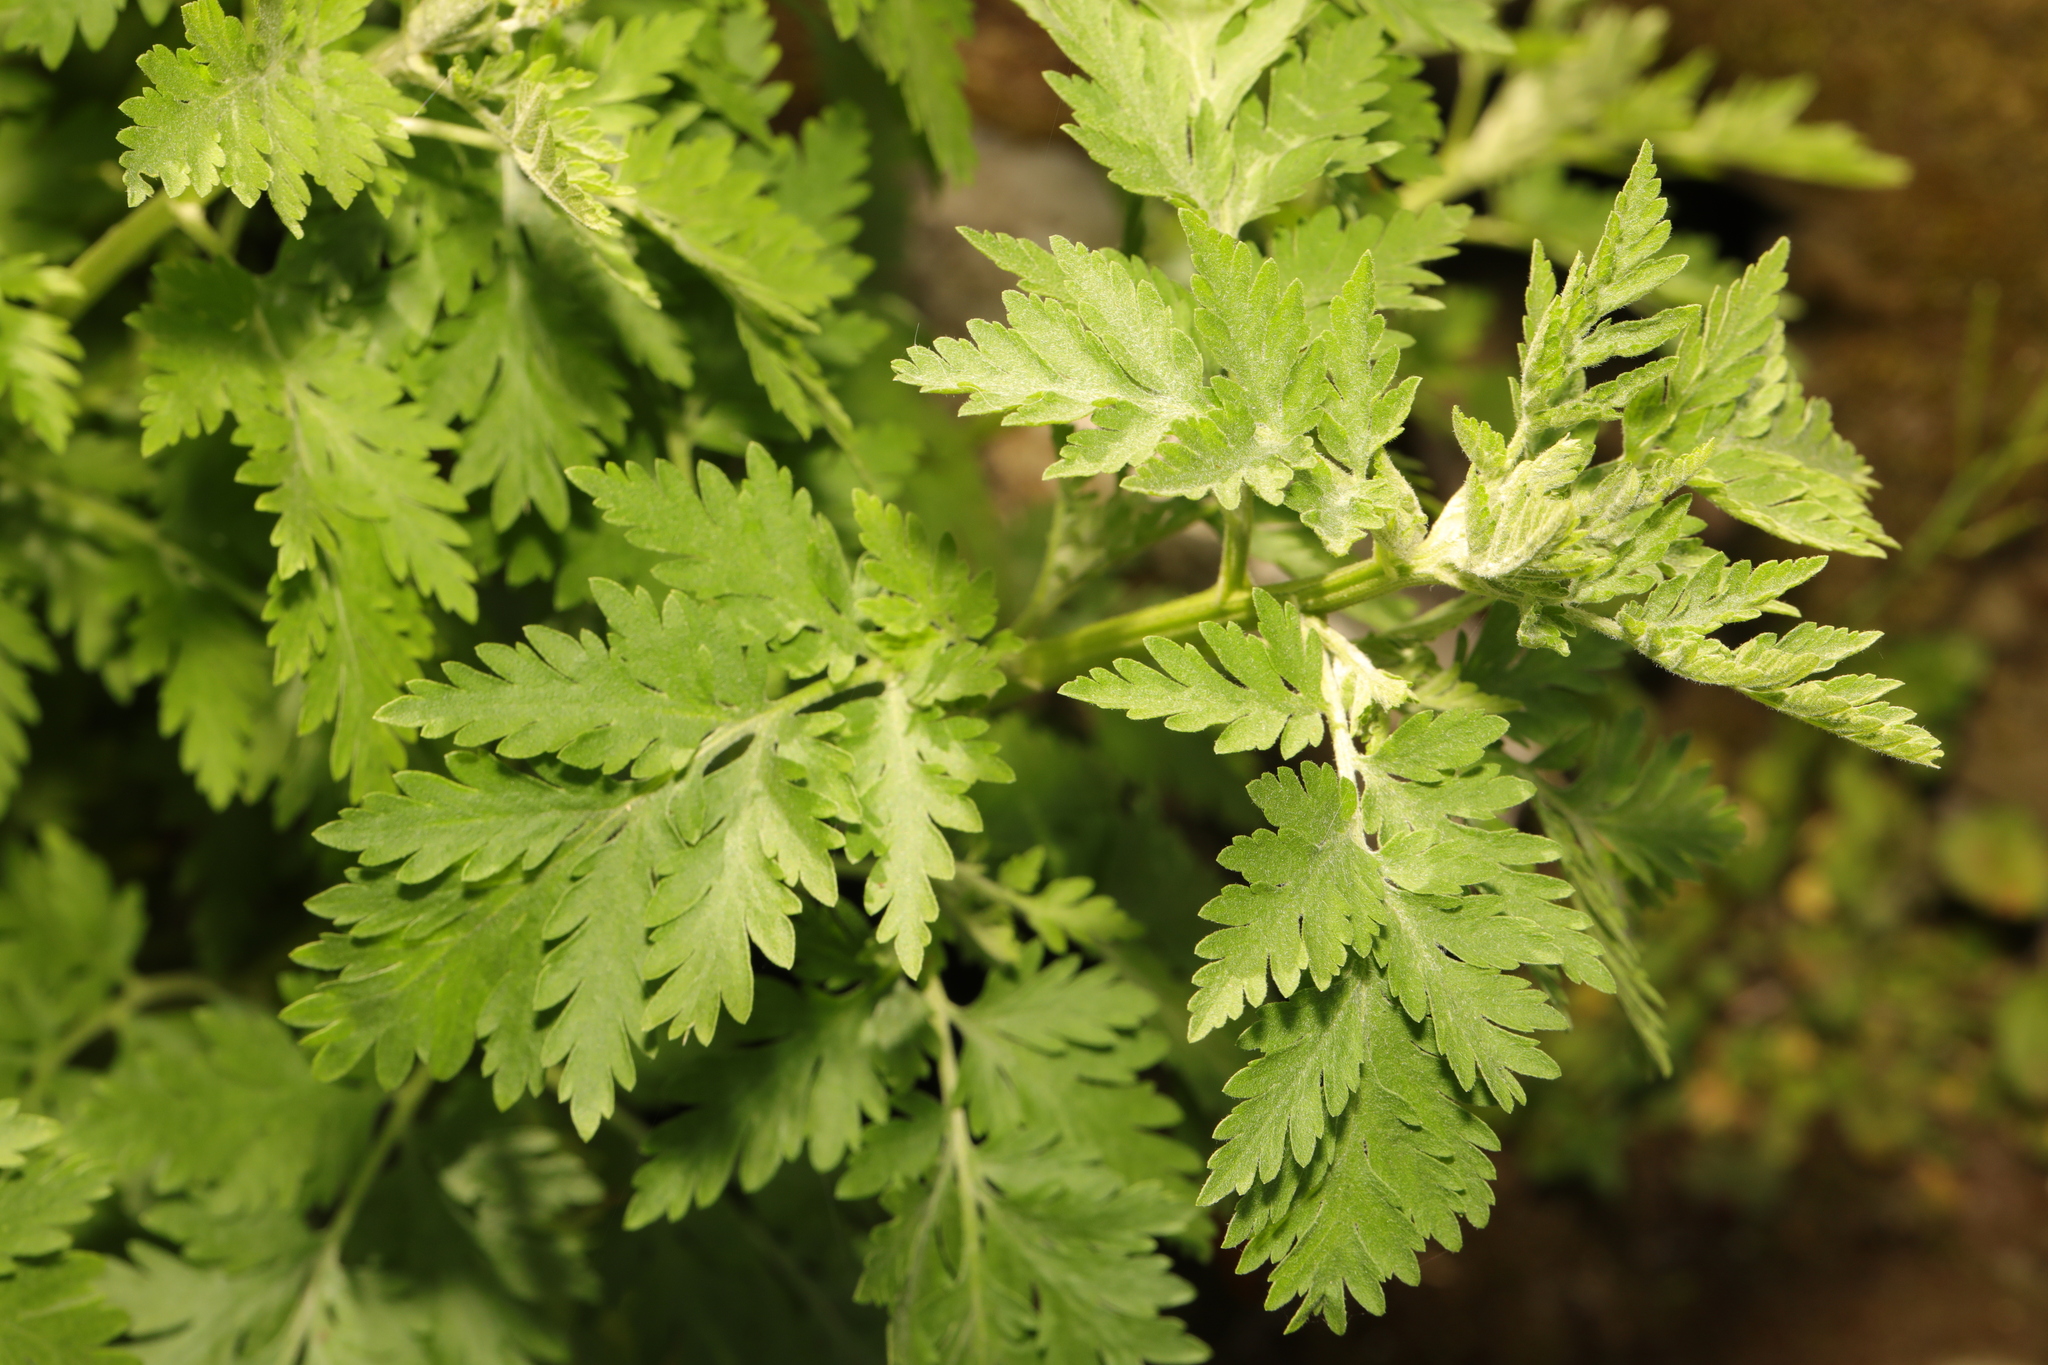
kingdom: Plantae
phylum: Tracheophyta
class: Magnoliopsida
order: Asterales
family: Asteraceae
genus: Tanacetum
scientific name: Tanacetum parthenium
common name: Feverfew
